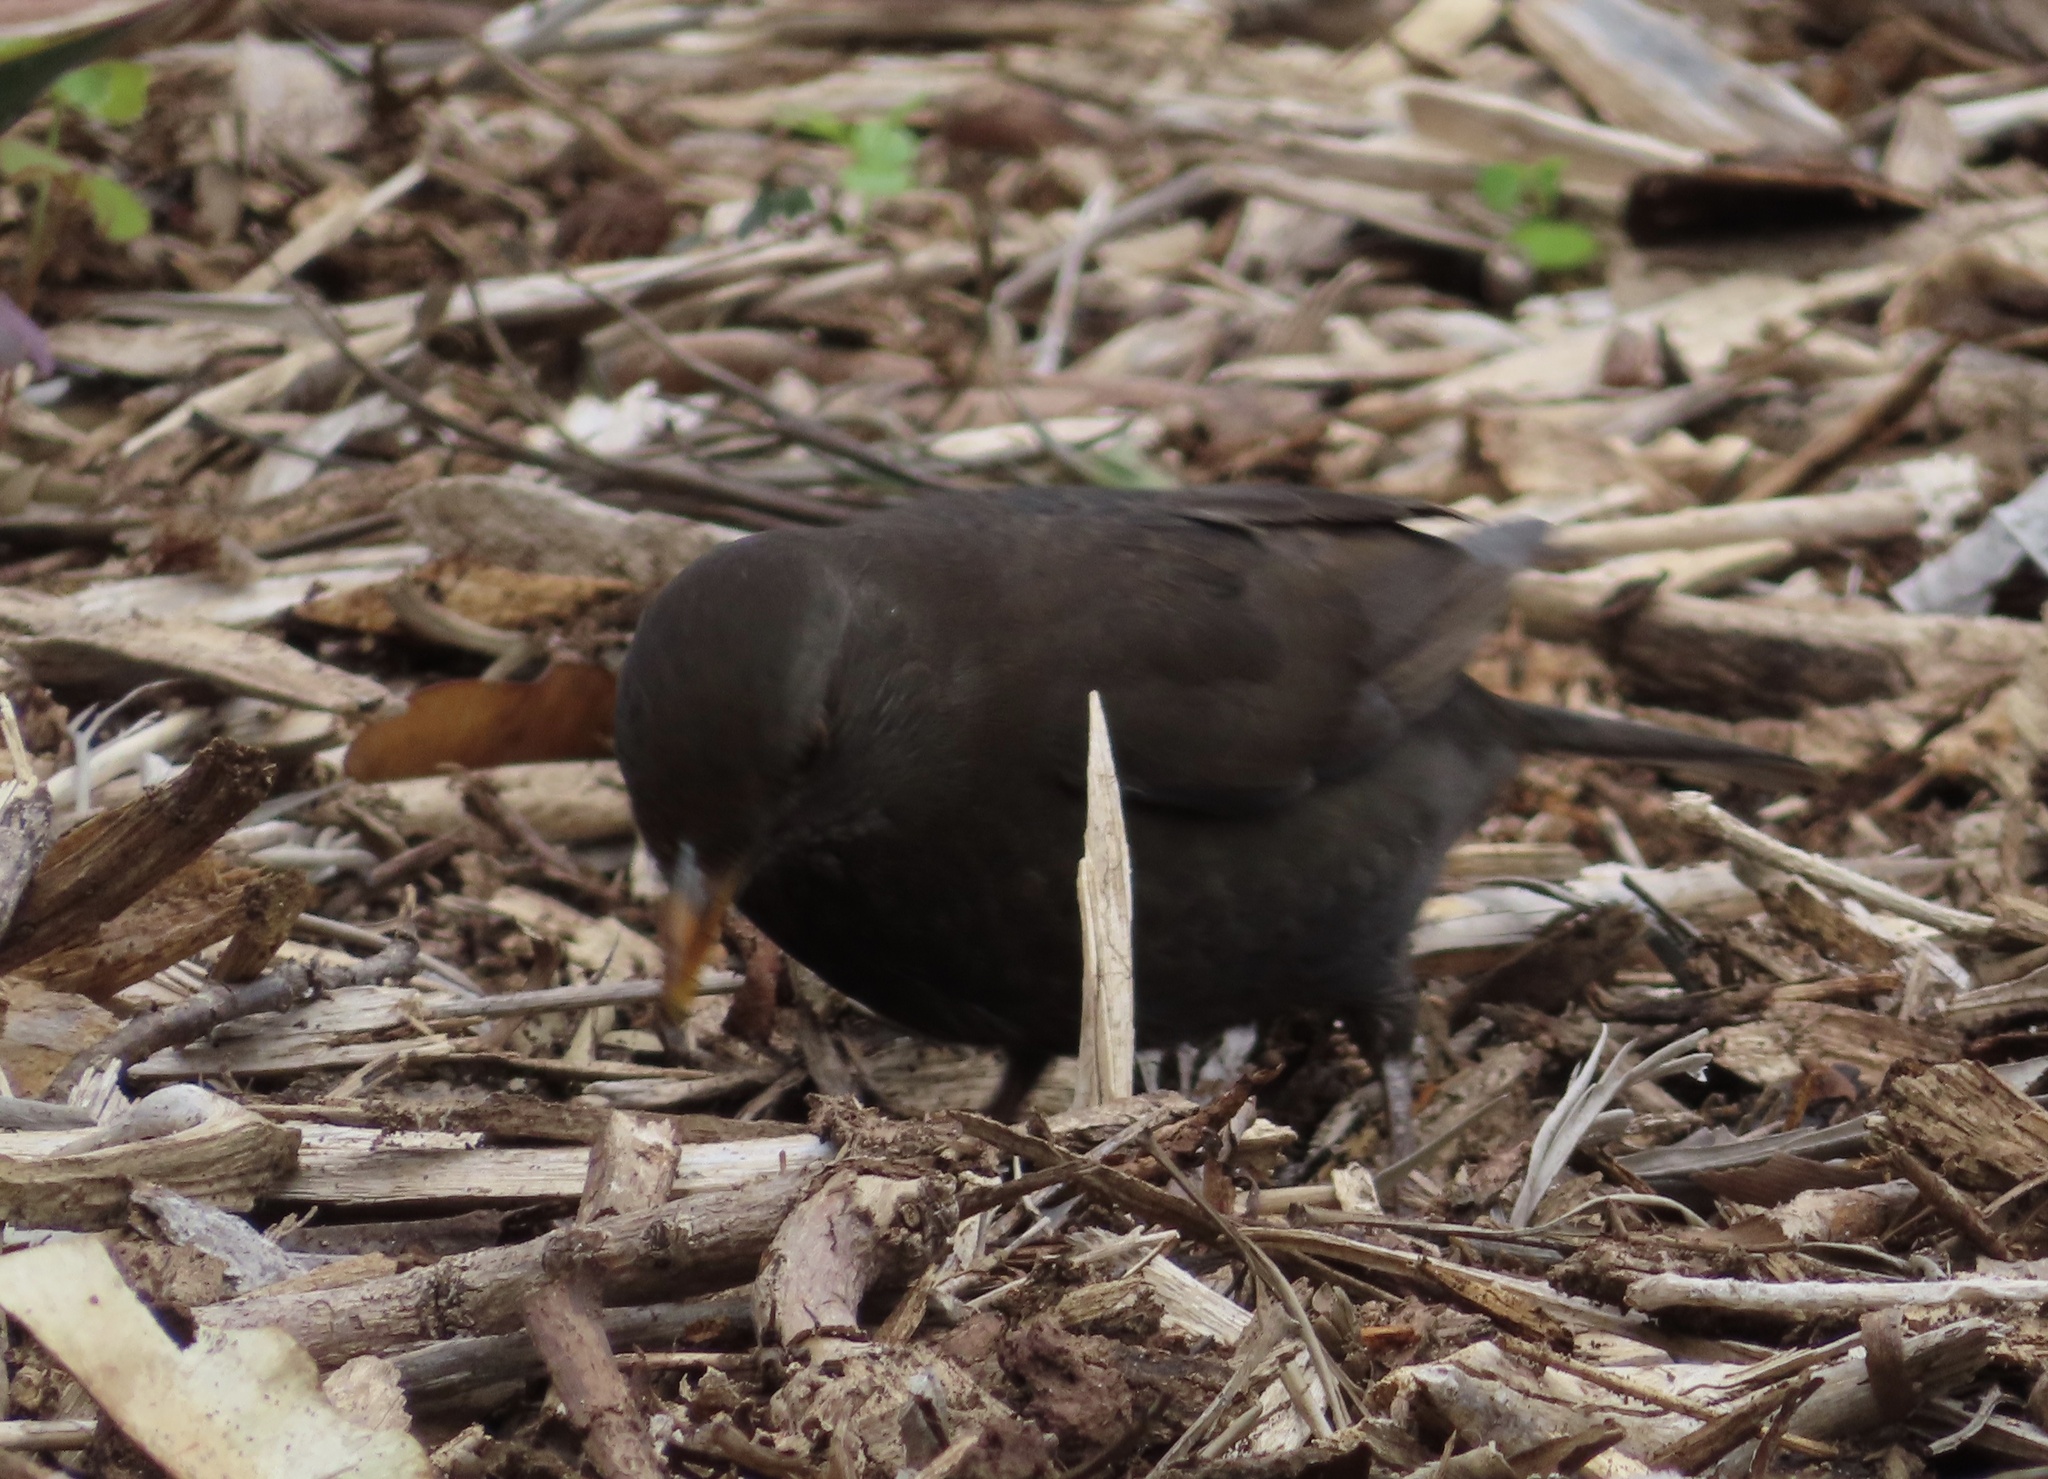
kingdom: Animalia
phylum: Chordata
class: Aves
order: Passeriformes
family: Turdidae
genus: Turdus
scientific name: Turdus merula
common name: Common blackbird
